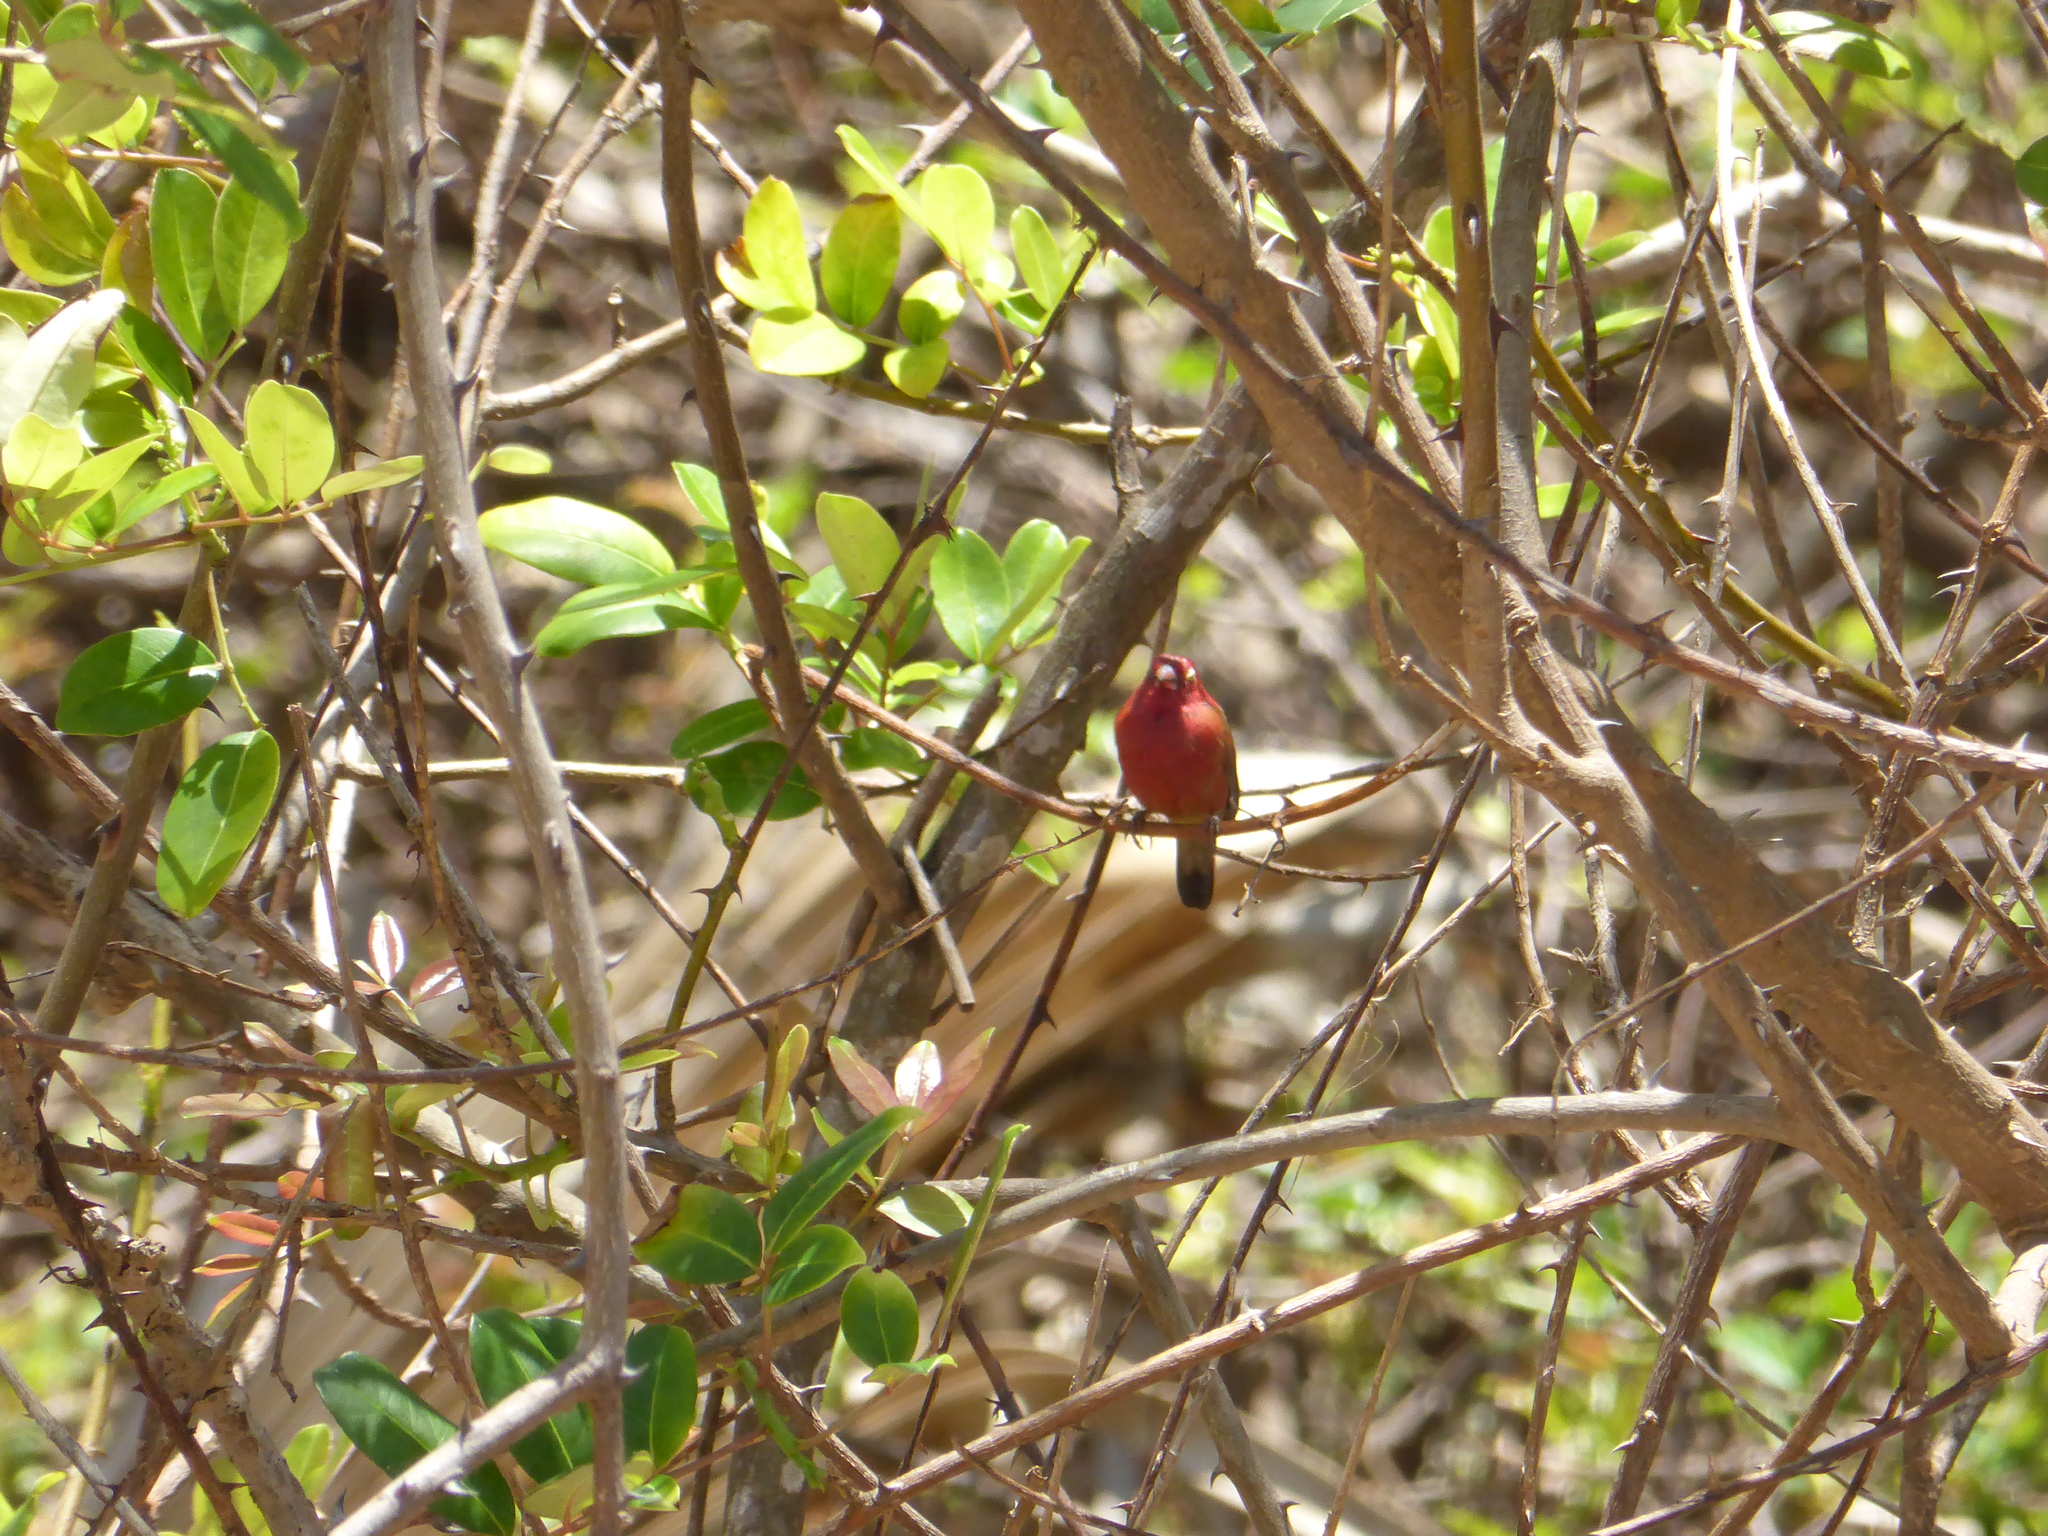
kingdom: Animalia
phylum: Chordata
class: Aves
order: Passeriformes
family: Estrildidae
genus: Lagonosticta
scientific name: Lagonosticta senegala
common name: Red-billed firefinch
